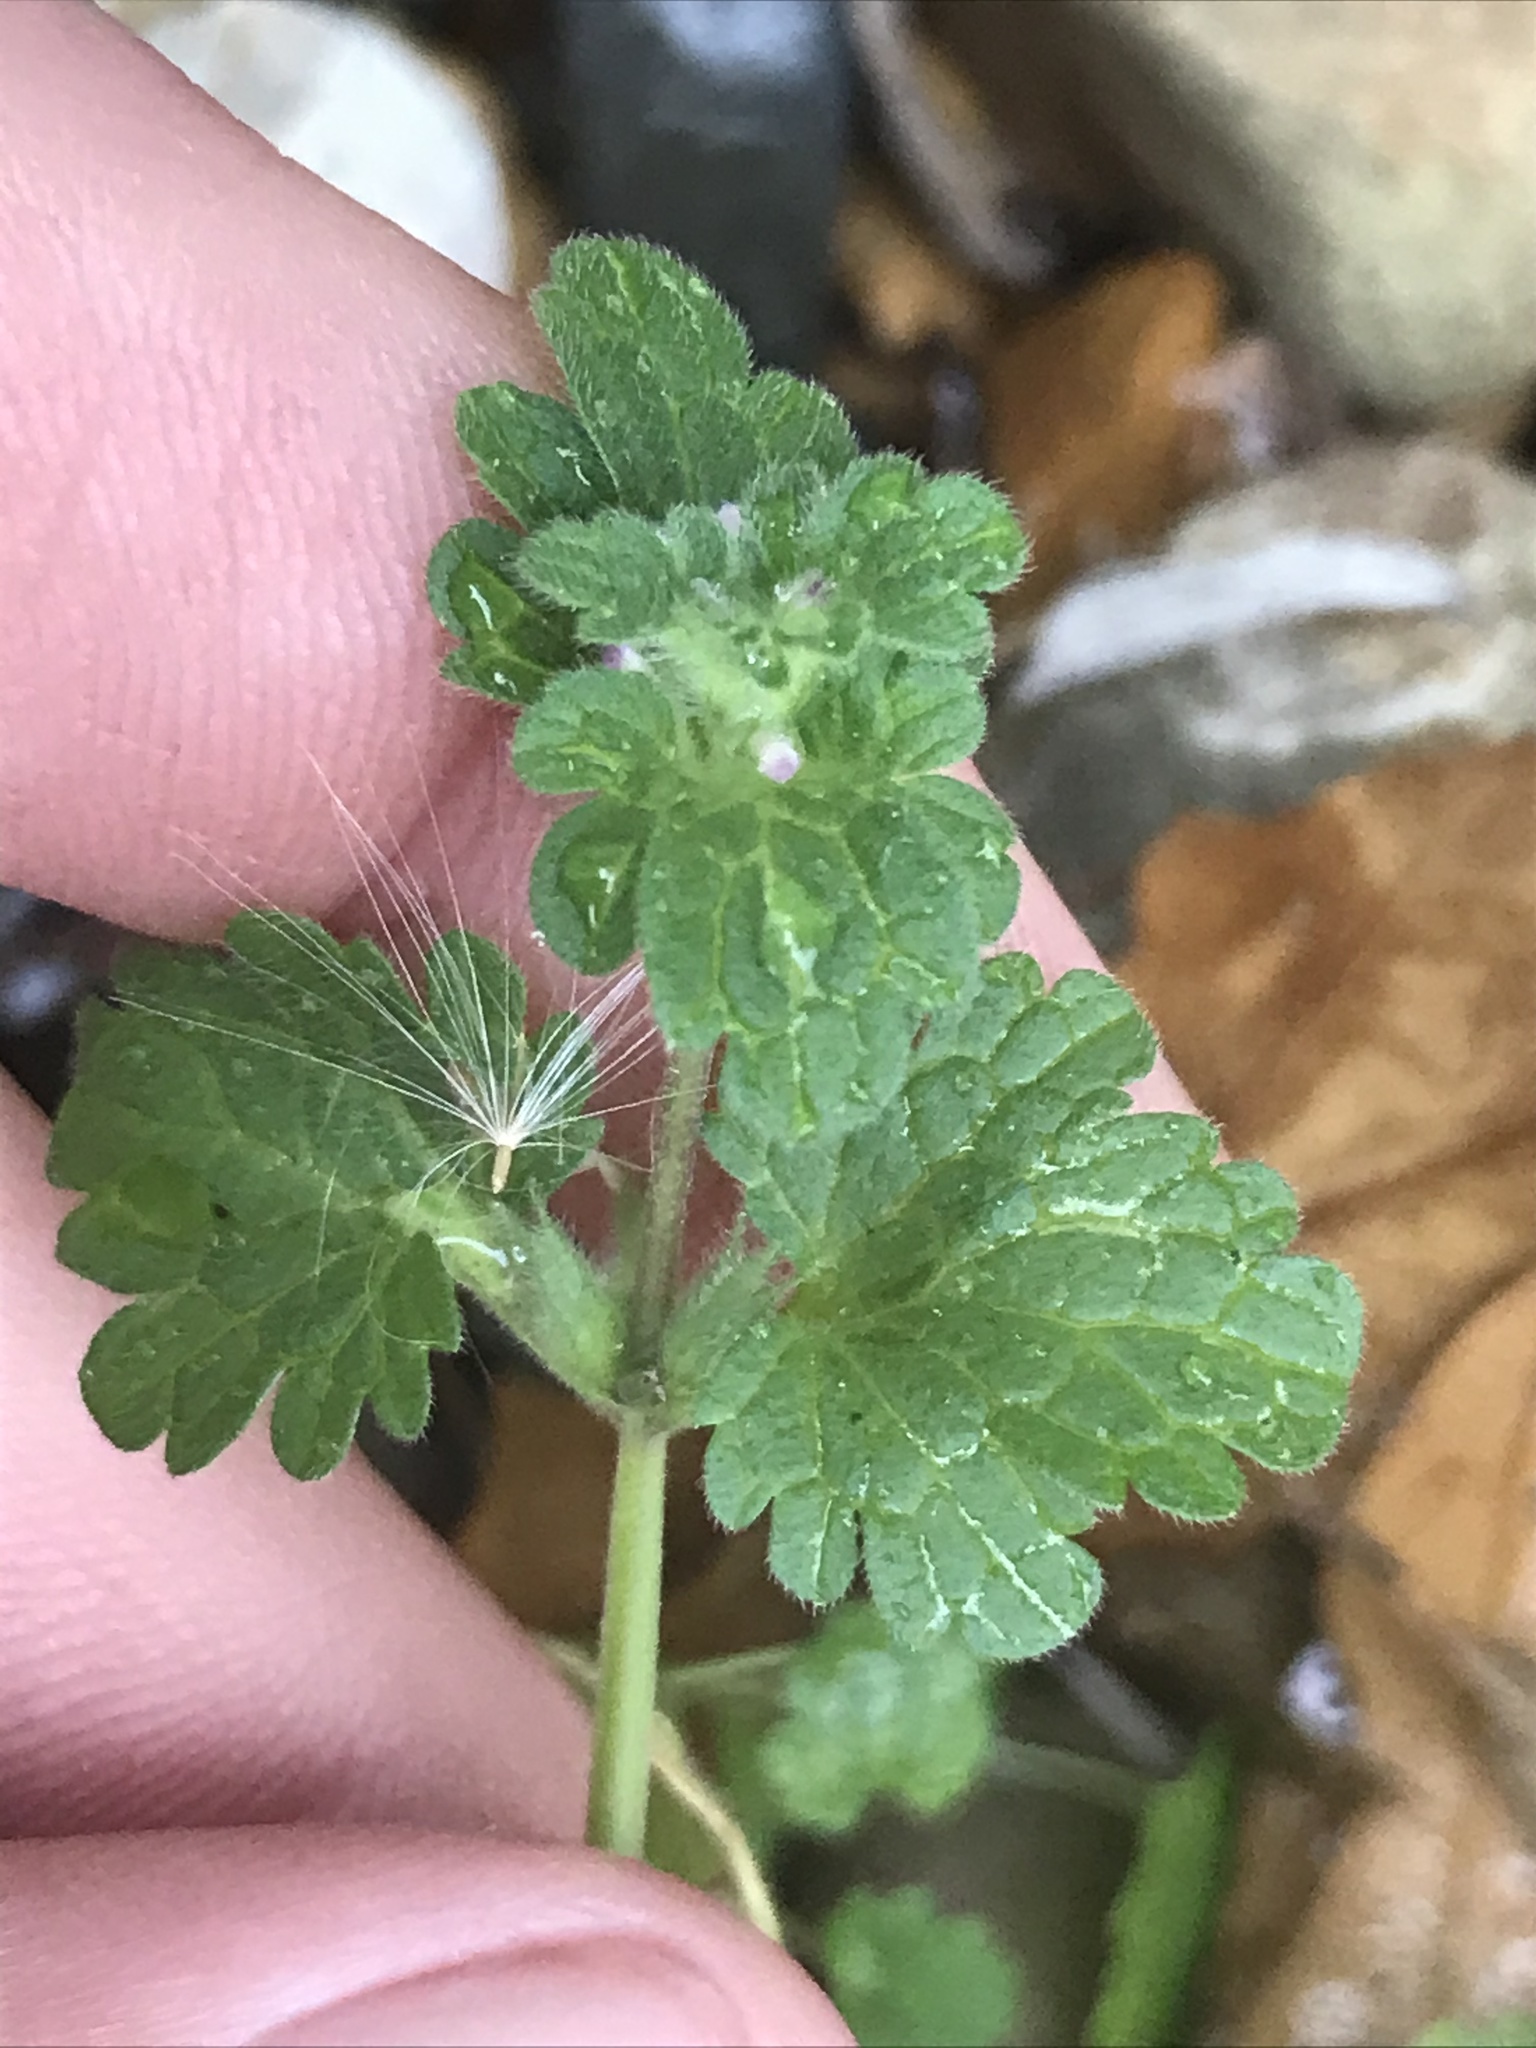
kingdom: Plantae
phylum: Tracheophyta
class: Magnoliopsida
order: Lamiales
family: Lamiaceae
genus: Lamium
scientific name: Lamium amplexicaule
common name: Henbit dead-nettle
